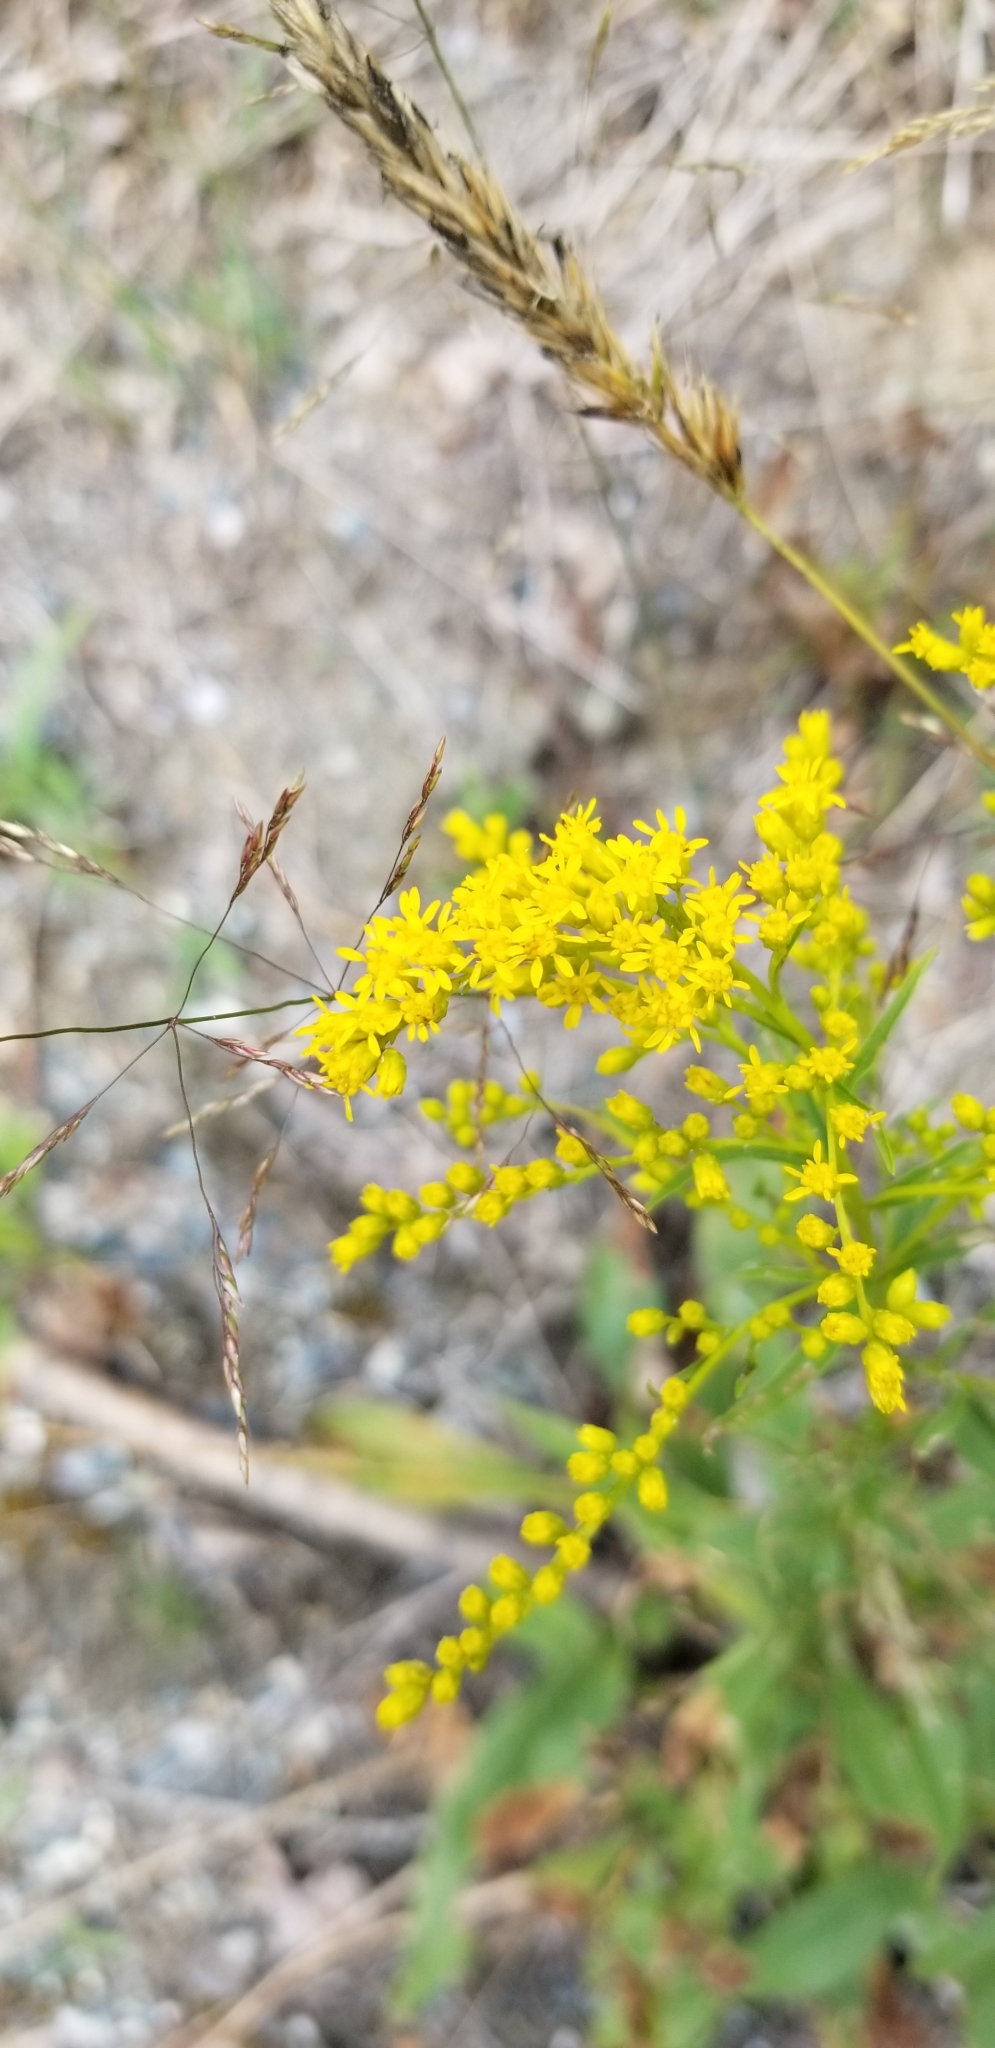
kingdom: Plantae
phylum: Tracheophyta
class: Magnoliopsida
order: Asterales
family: Asteraceae
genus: Solidago
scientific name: Solidago juncea
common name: Early goldenrod
